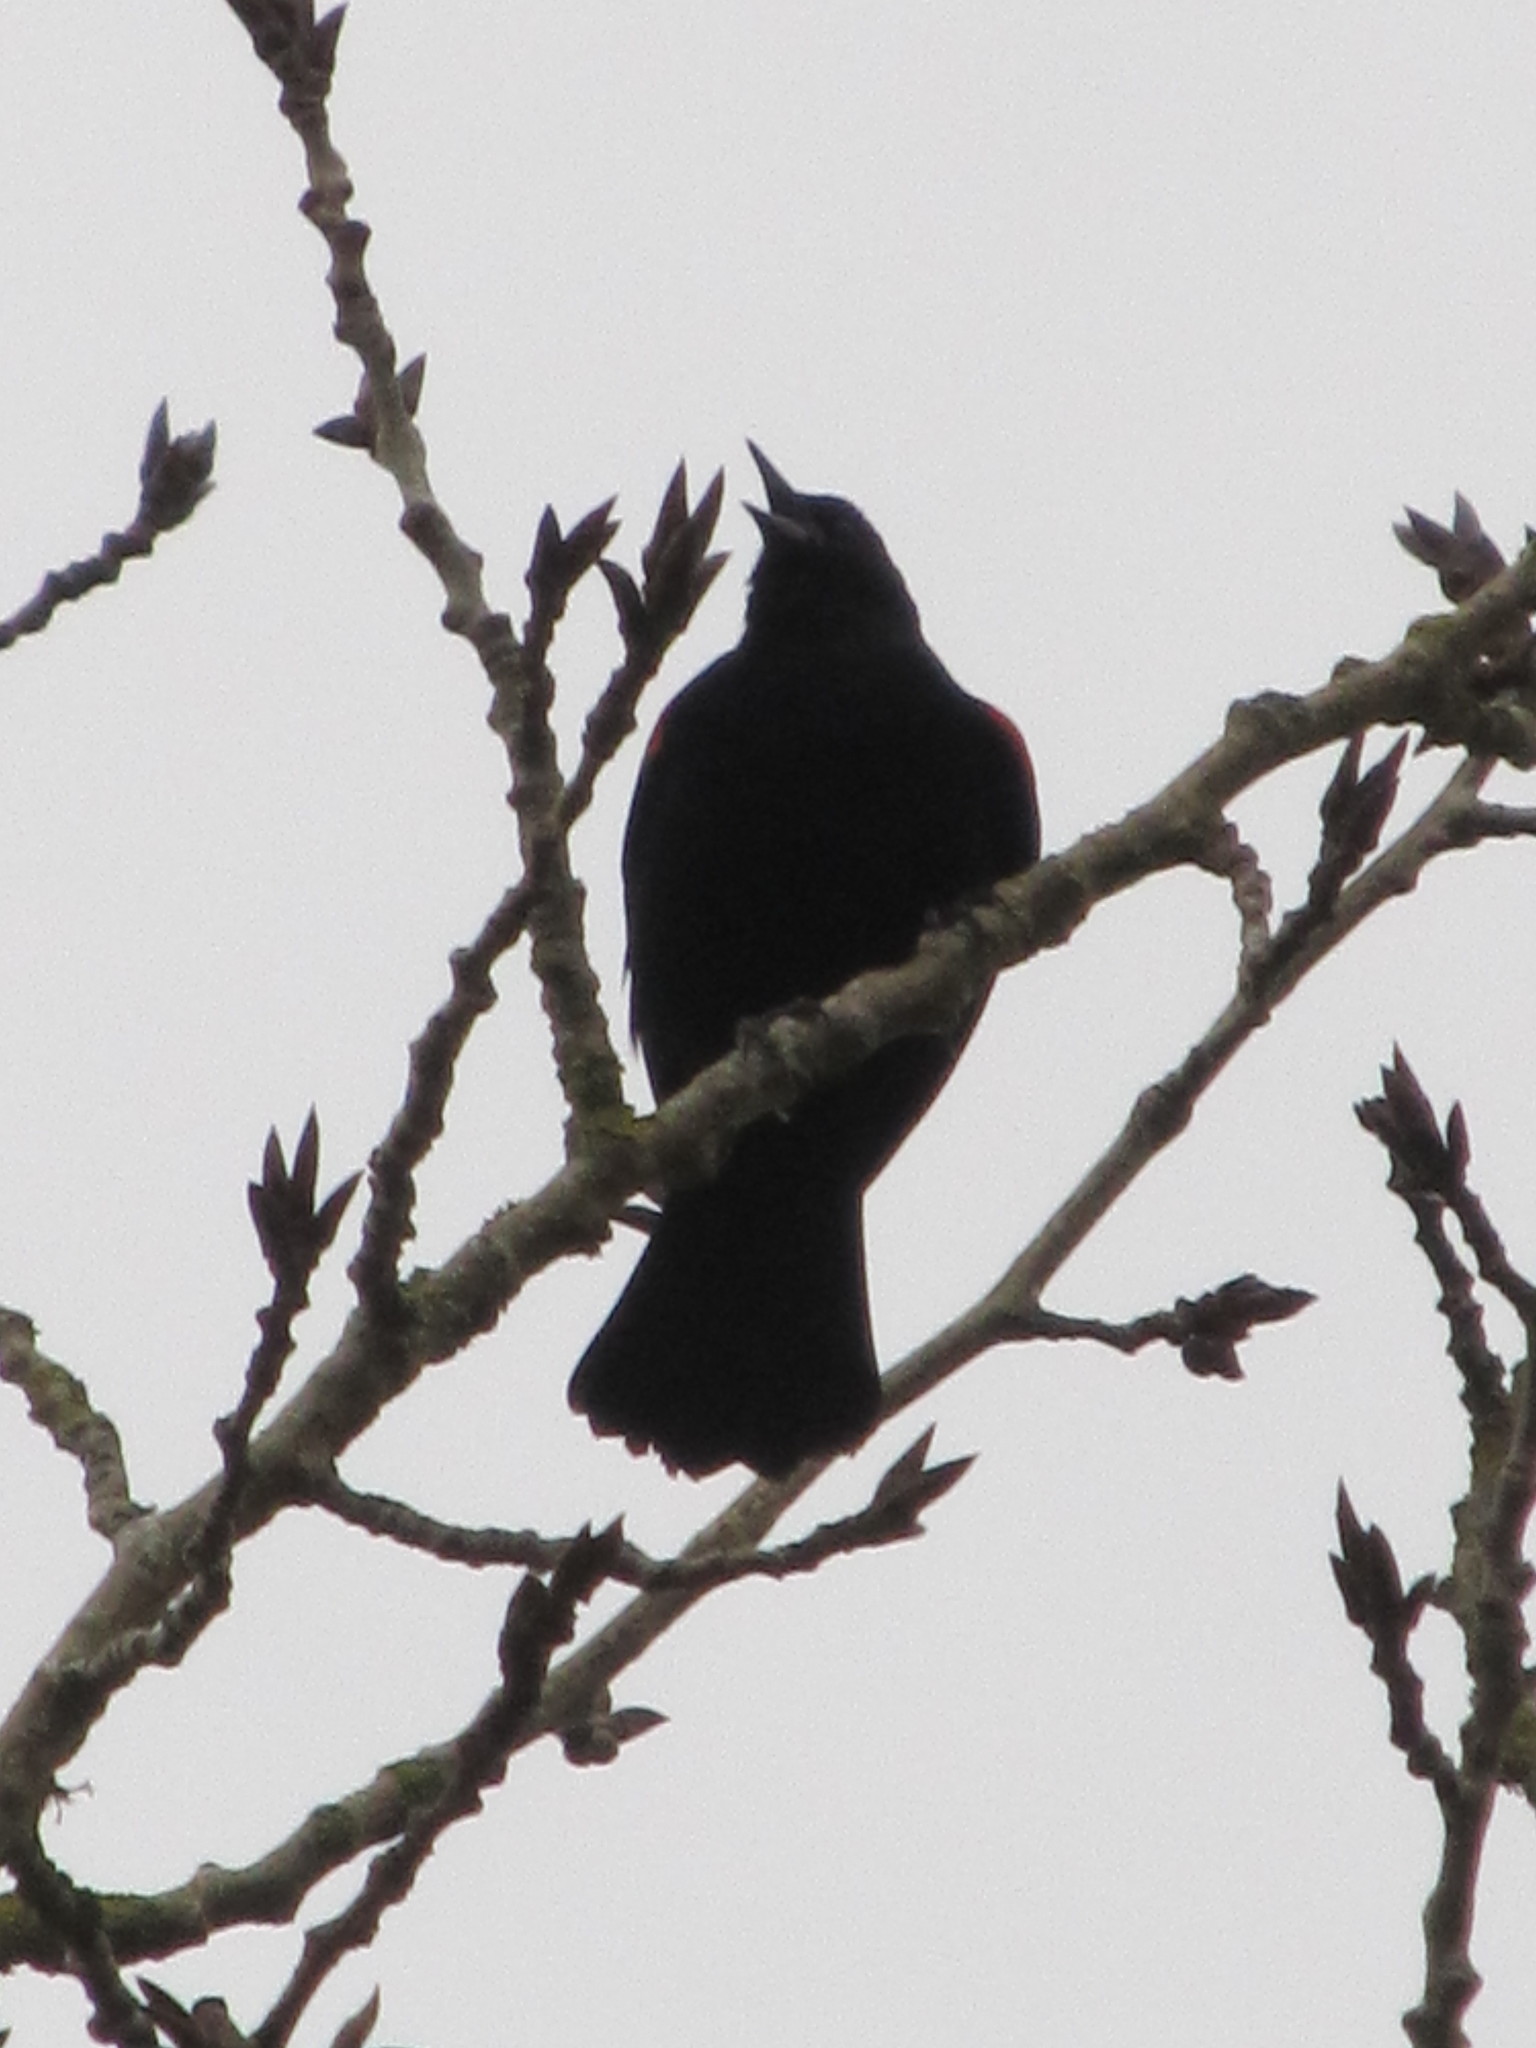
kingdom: Animalia
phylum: Chordata
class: Aves
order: Passeriformes
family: Icteridae
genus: Agelaius
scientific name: Agelaius phoeniceus
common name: Red-winged blackbird
